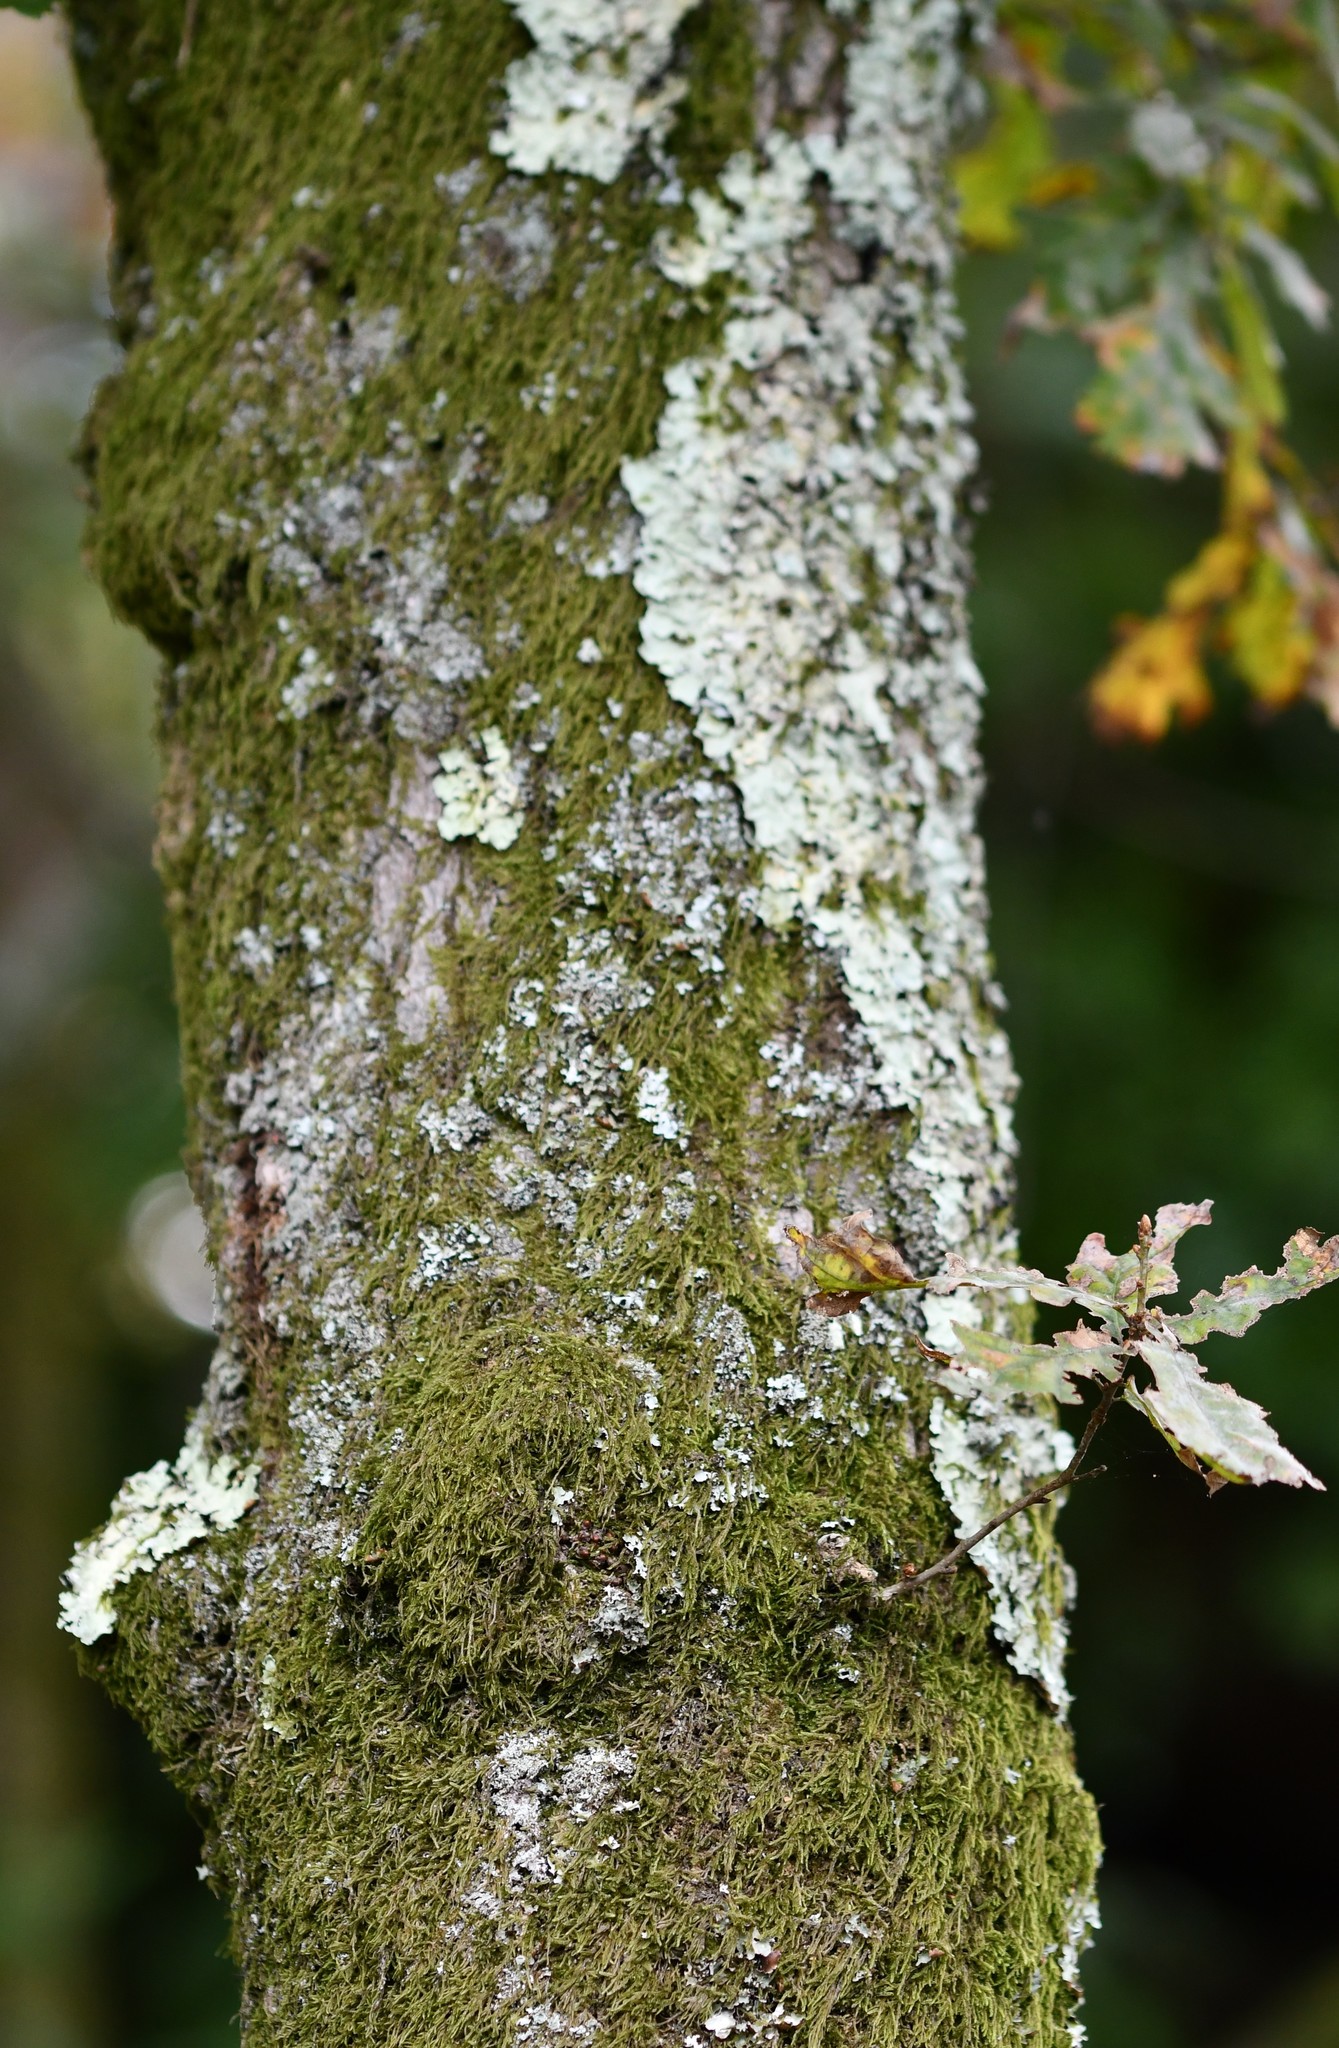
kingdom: Plantae
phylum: Tracheophyta
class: Magnoliopsida
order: Fagales
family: Fagaceae
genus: Quercus
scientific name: Quercus pyrenaica
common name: Pyrenean oak
